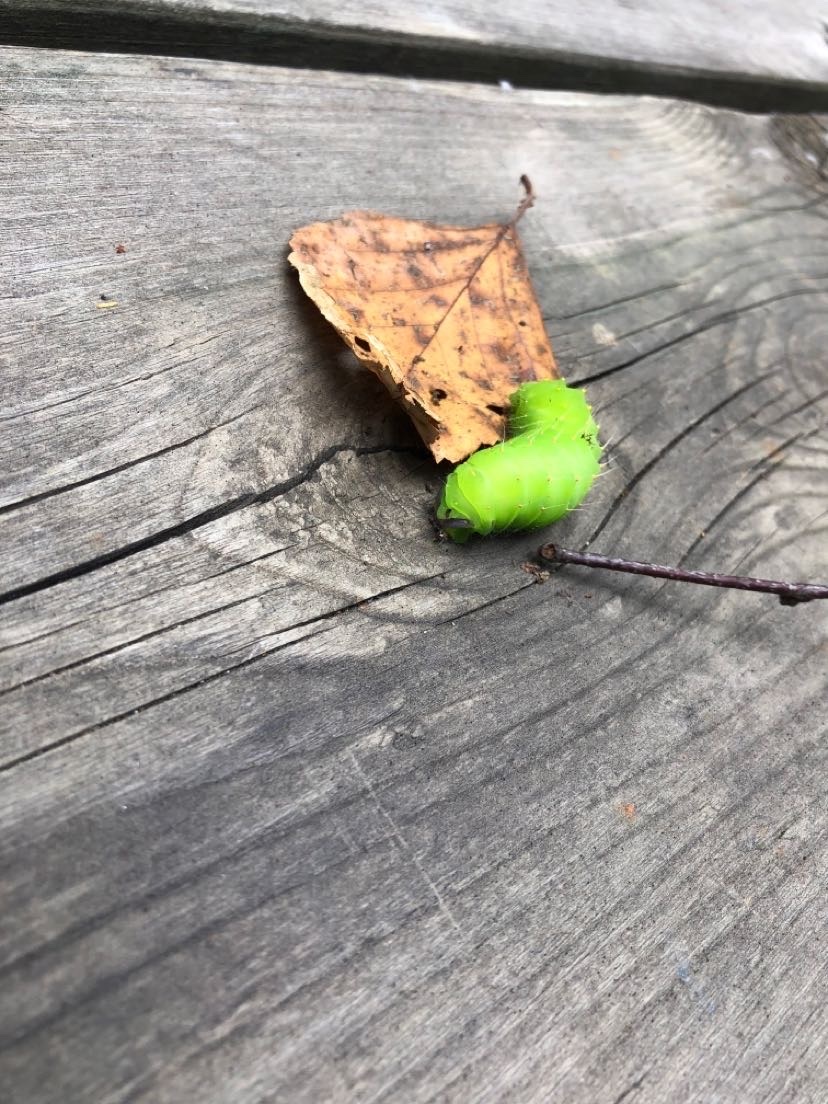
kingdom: Animalia
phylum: Arthropoda
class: Insecta
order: Lepidoptera
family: Saturniidae
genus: Antheraea
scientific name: Antheraea polyphemus
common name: Polyphemus moth
